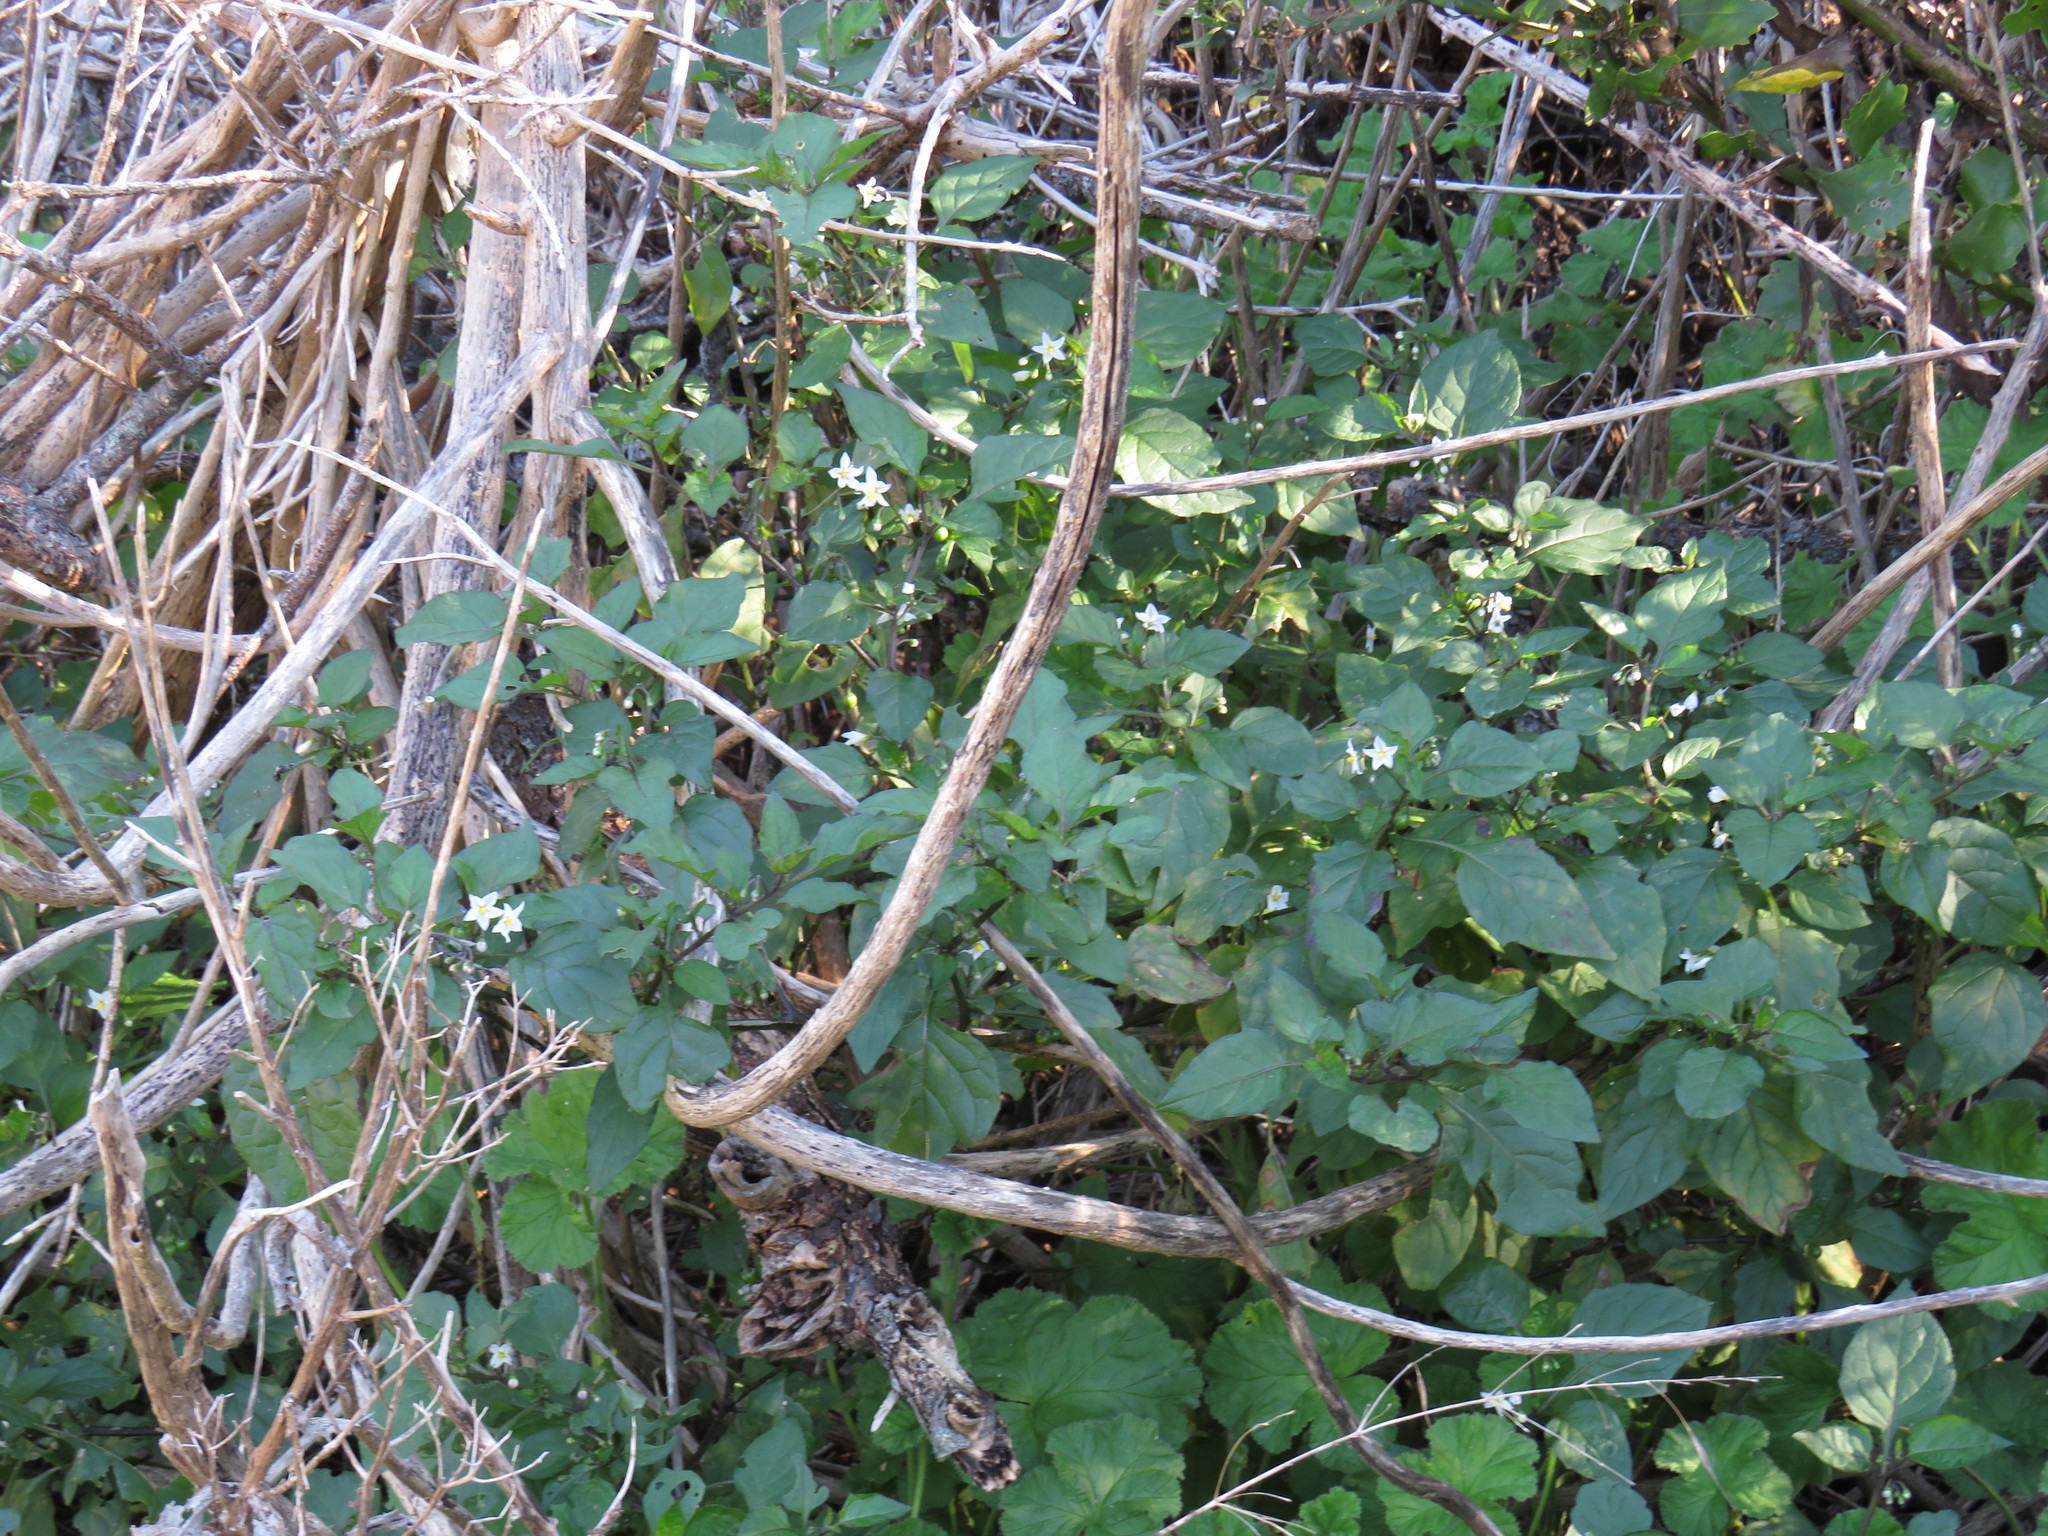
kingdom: Plantae
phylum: Tracheophyta
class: Magnoliopsida
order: Solanales
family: Solanaceae
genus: Solanum
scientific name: Solanum nigrum
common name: Black nightshade
